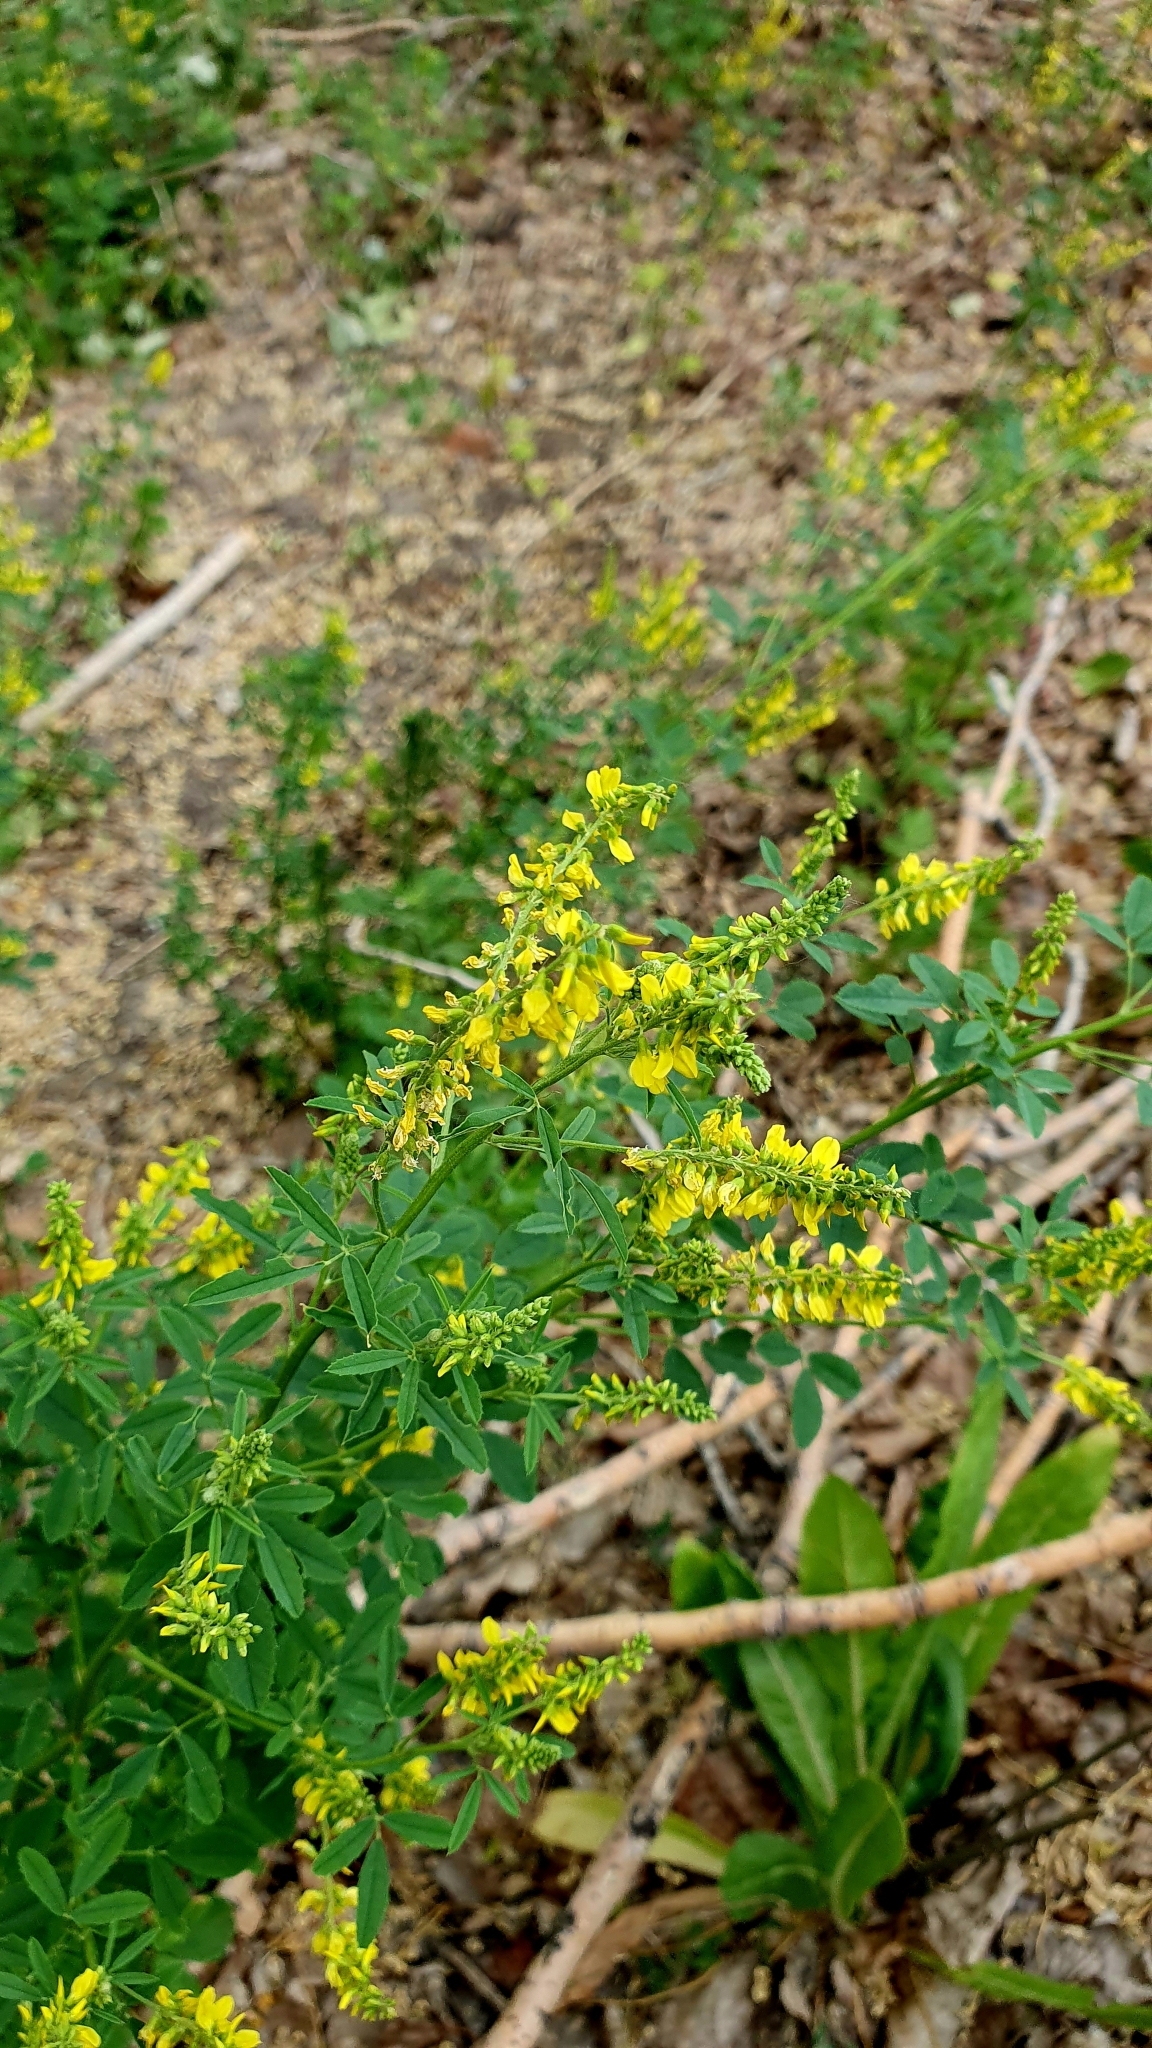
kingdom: Plantae
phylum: Tracheophyta
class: Magnoliopsida
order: Fabales
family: Fabaceae
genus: Melilotus
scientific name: Melilotus officinalis
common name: Sweetclover
